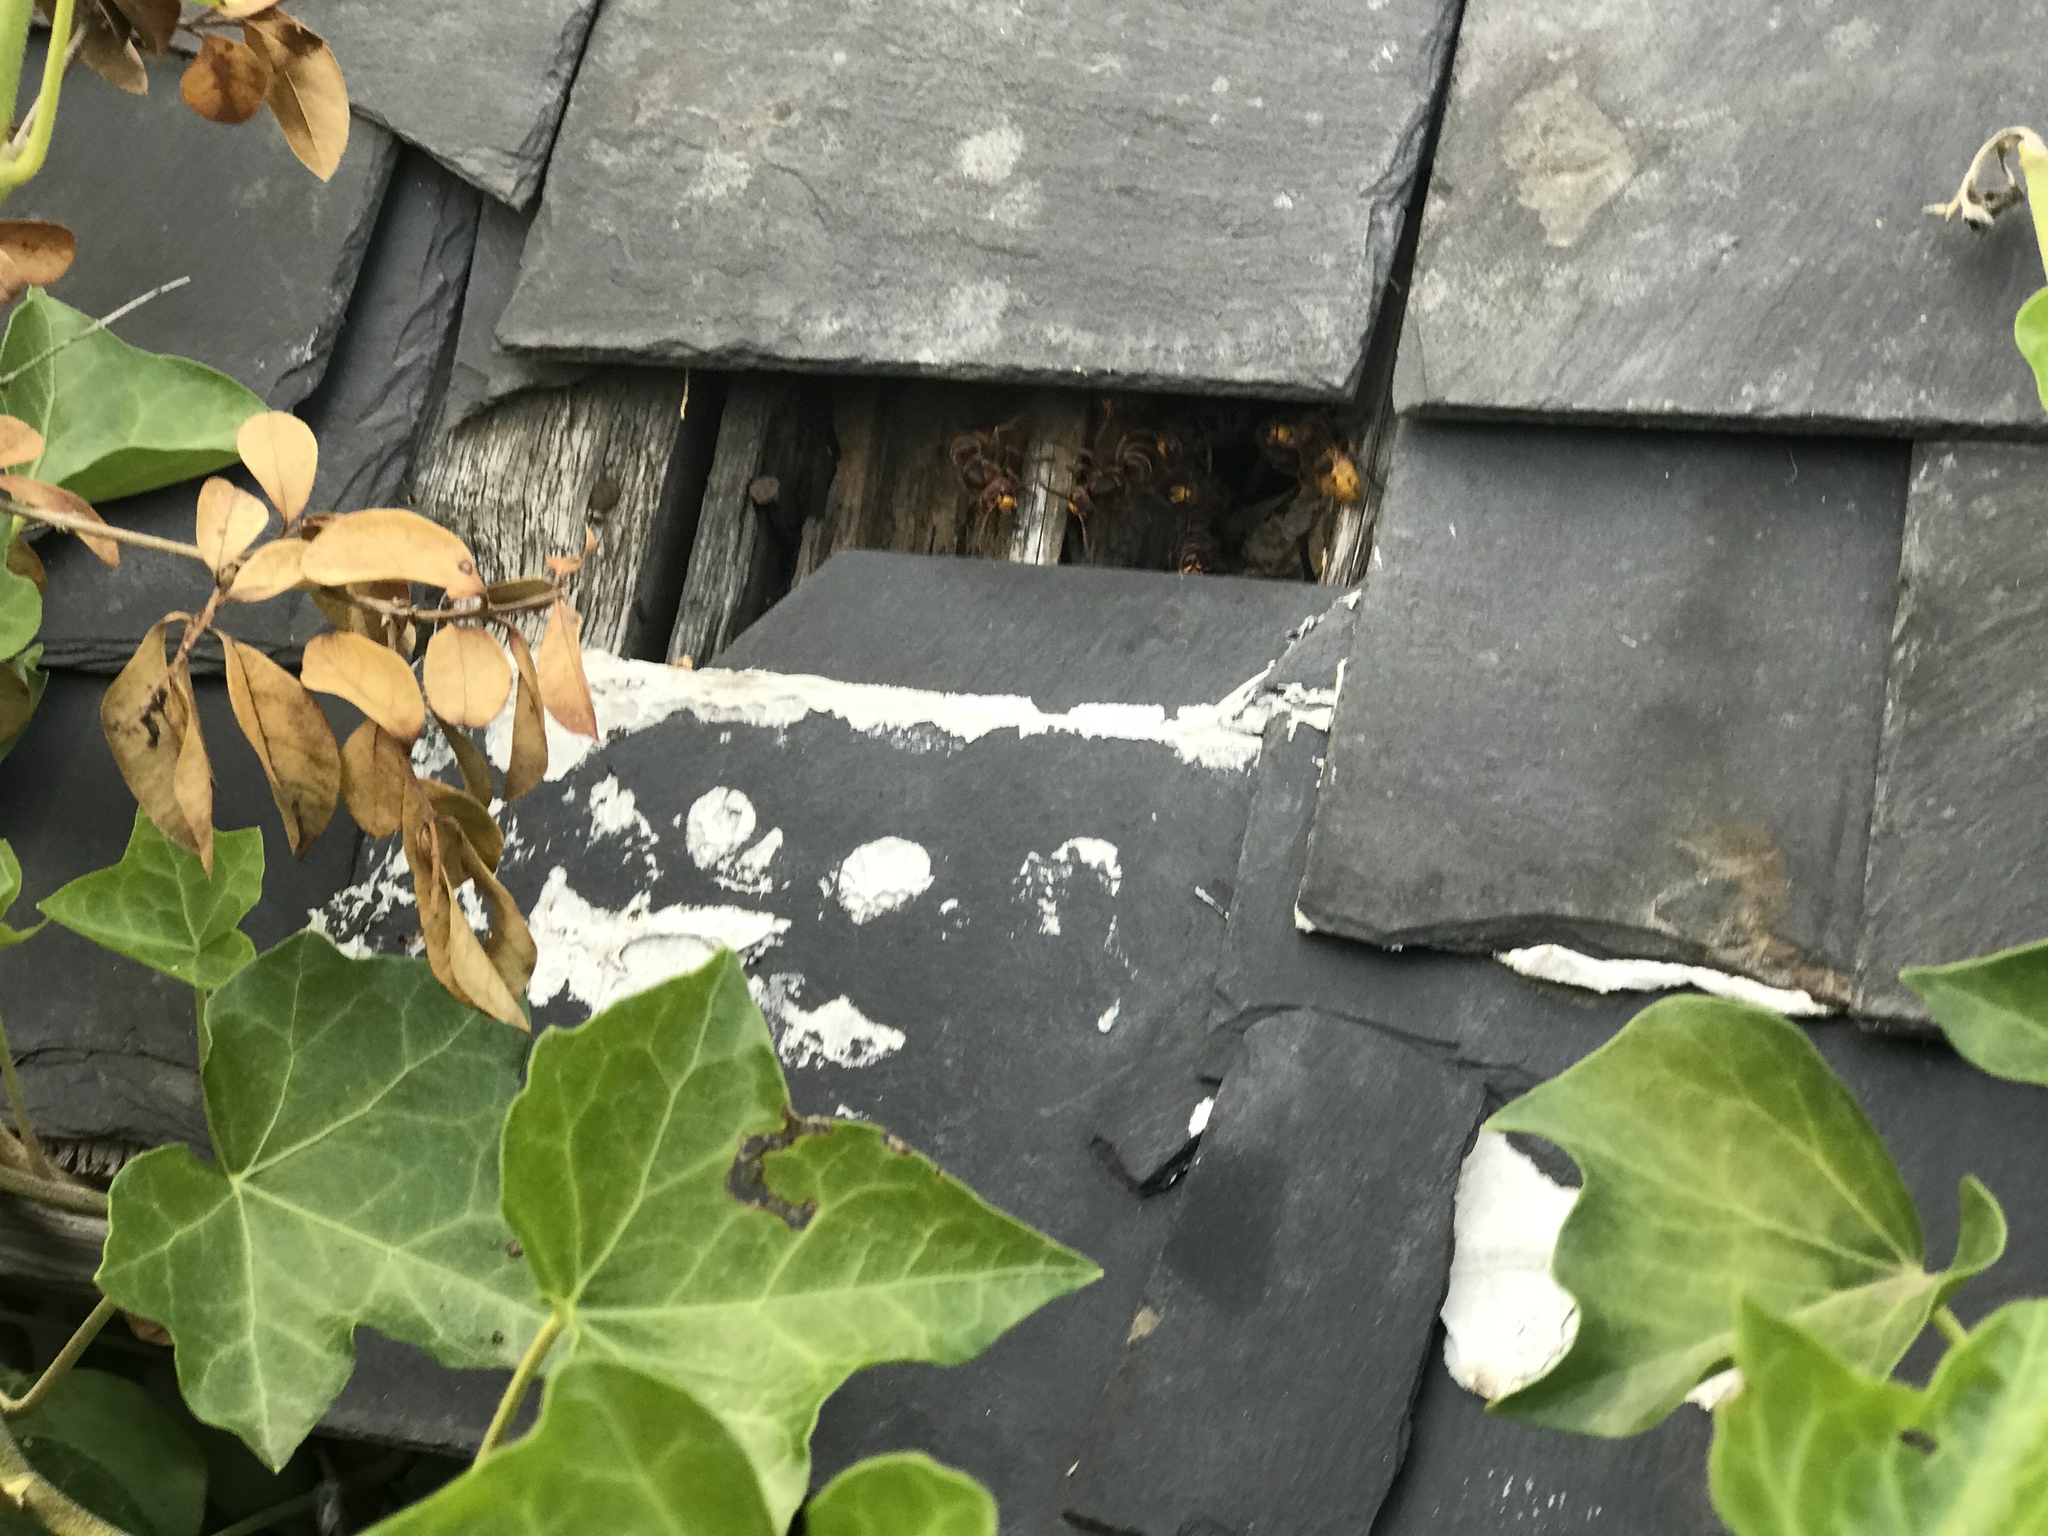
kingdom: Animalia
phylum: Arthropoda
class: Insecta
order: Hymenoptera
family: Vespidae
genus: Vespa
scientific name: Vespa crabro
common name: Hornet
